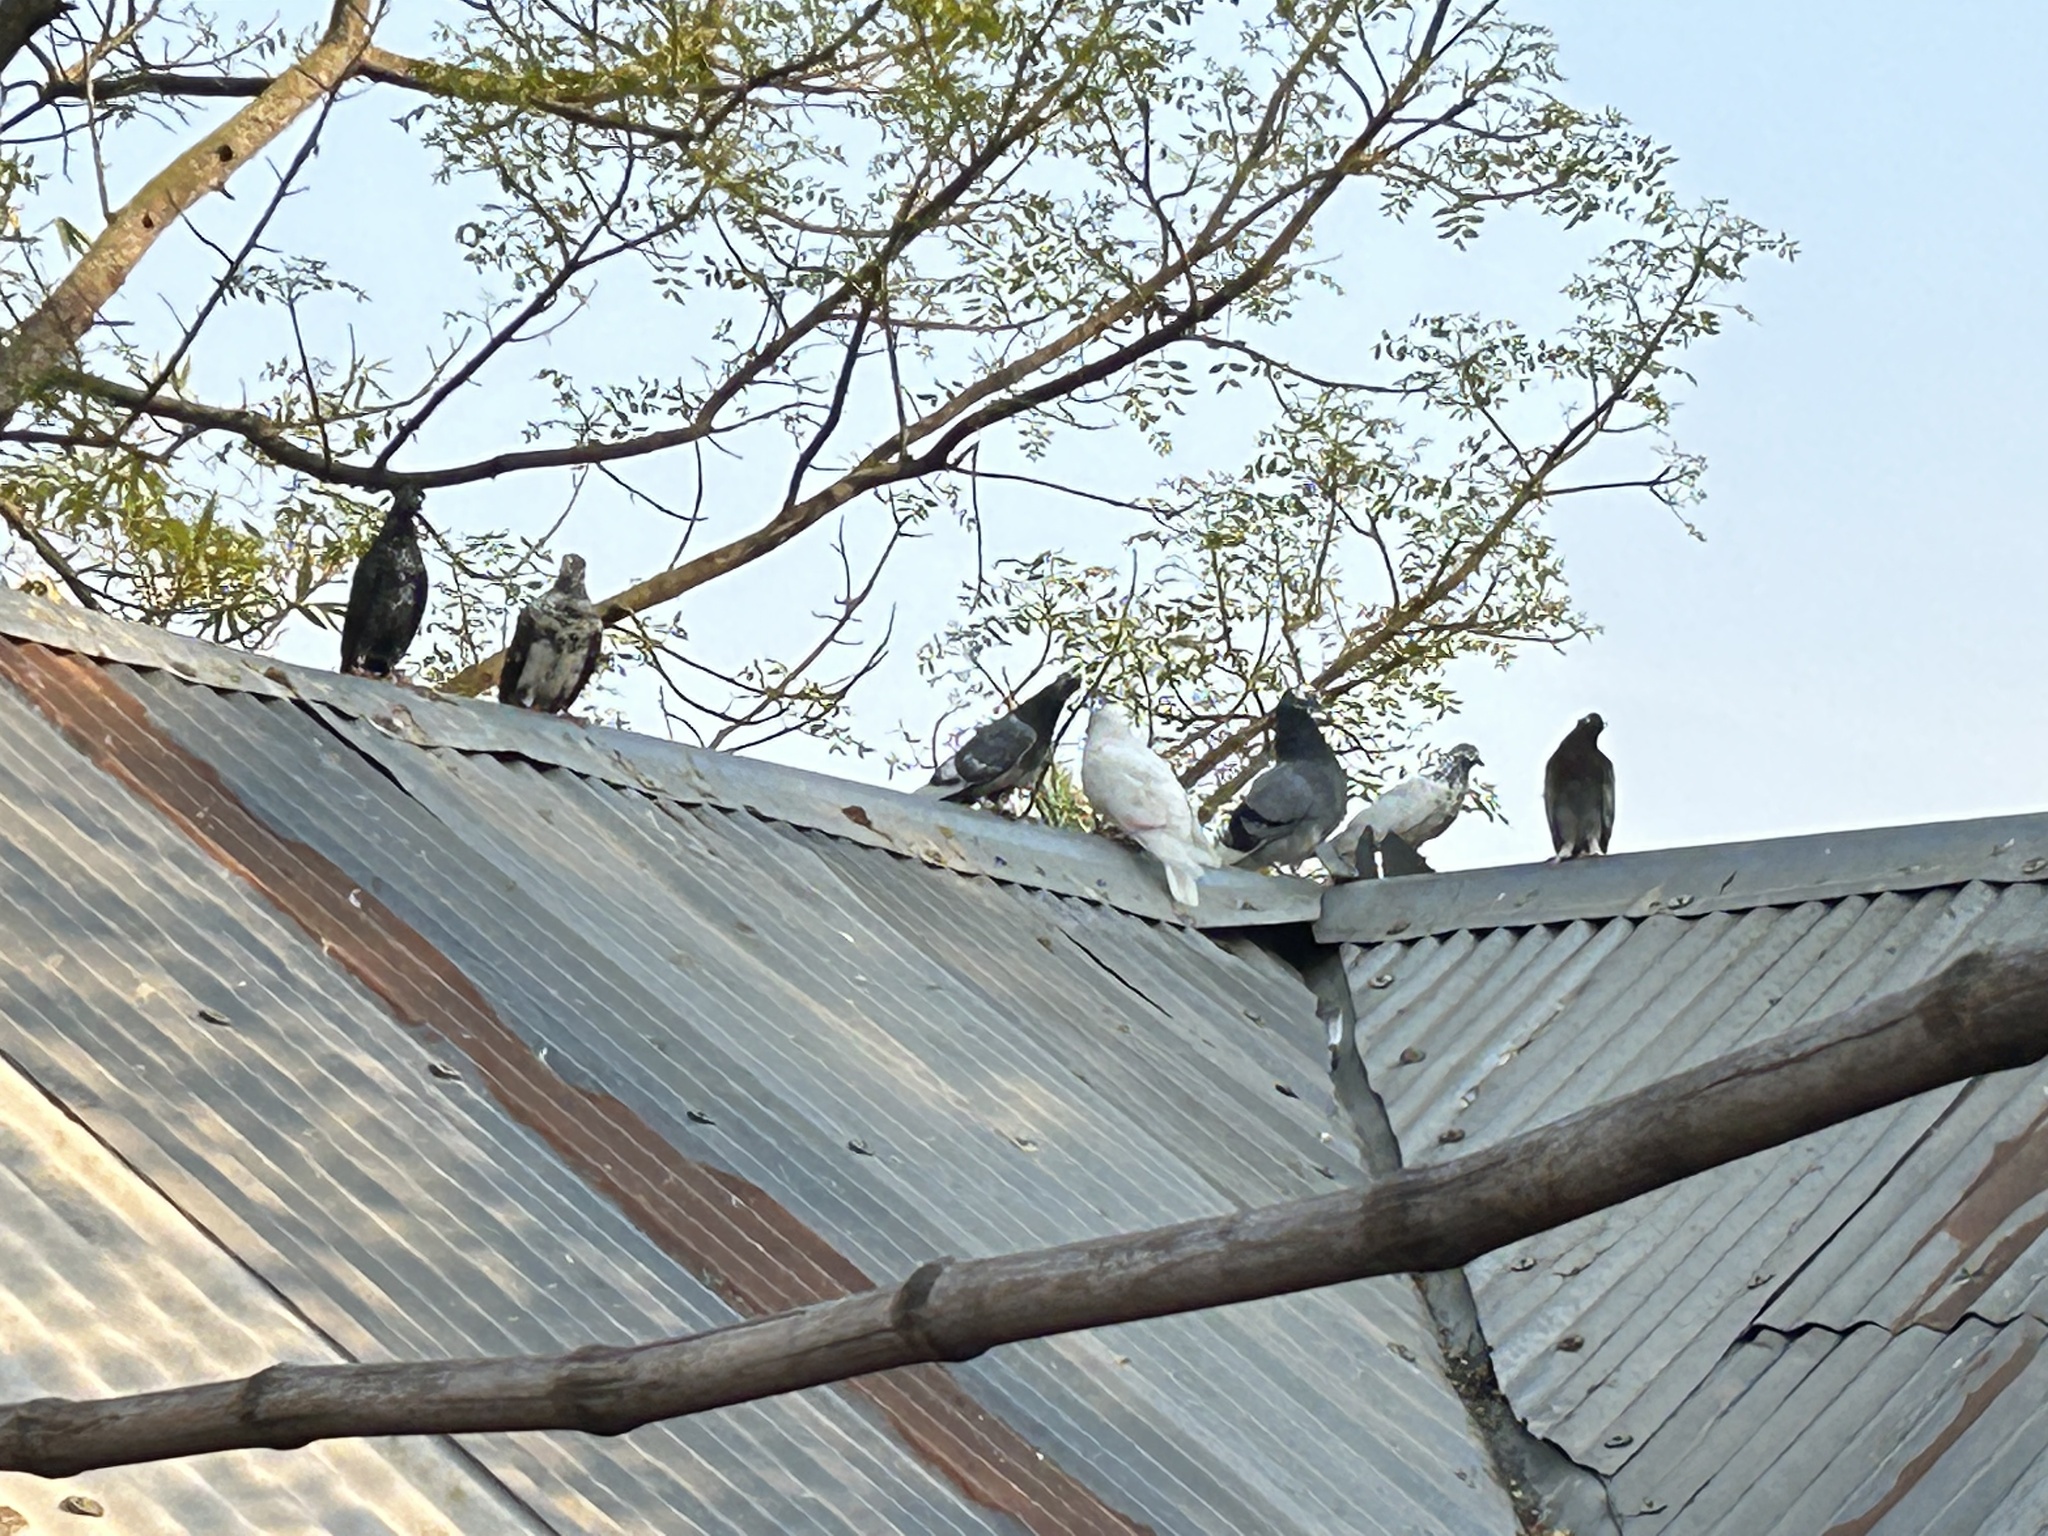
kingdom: Animalia
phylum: Chordata
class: Aves
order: Columbiformes
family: Columbidae
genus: Columba
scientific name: Columba livia
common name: Rock pigeon
